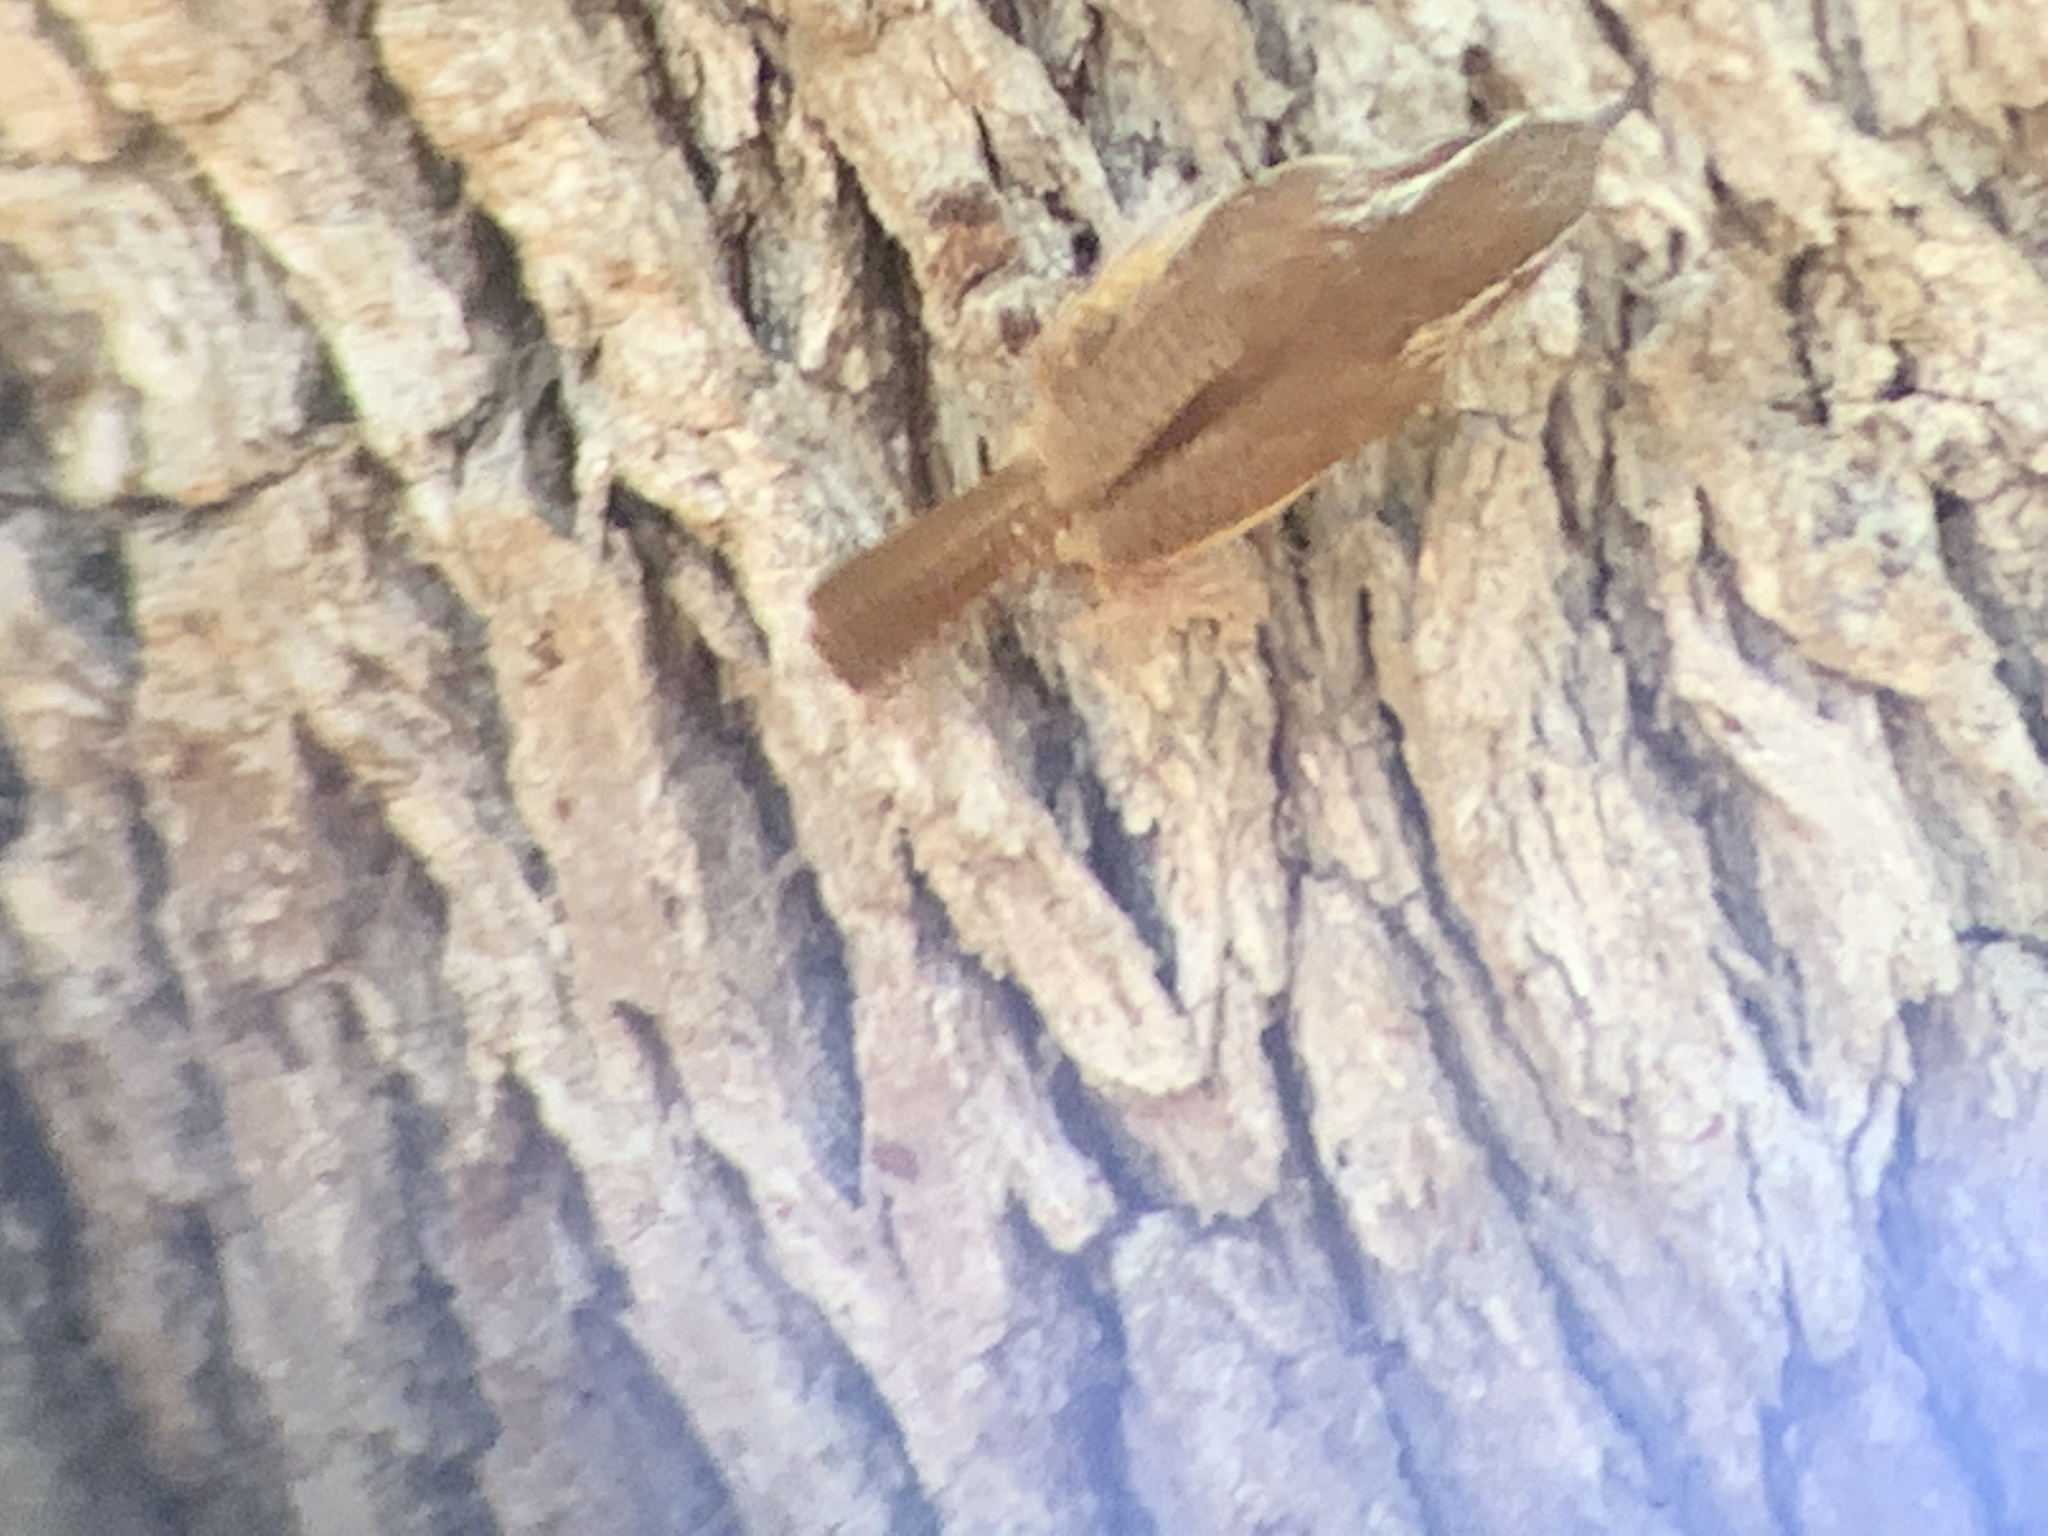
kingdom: Animalia
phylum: Chordata
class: Aves
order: Passeriformes
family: Troglodytidae
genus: Thryothorus
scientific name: Thryothorus ludovicianus
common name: Carolina wren
